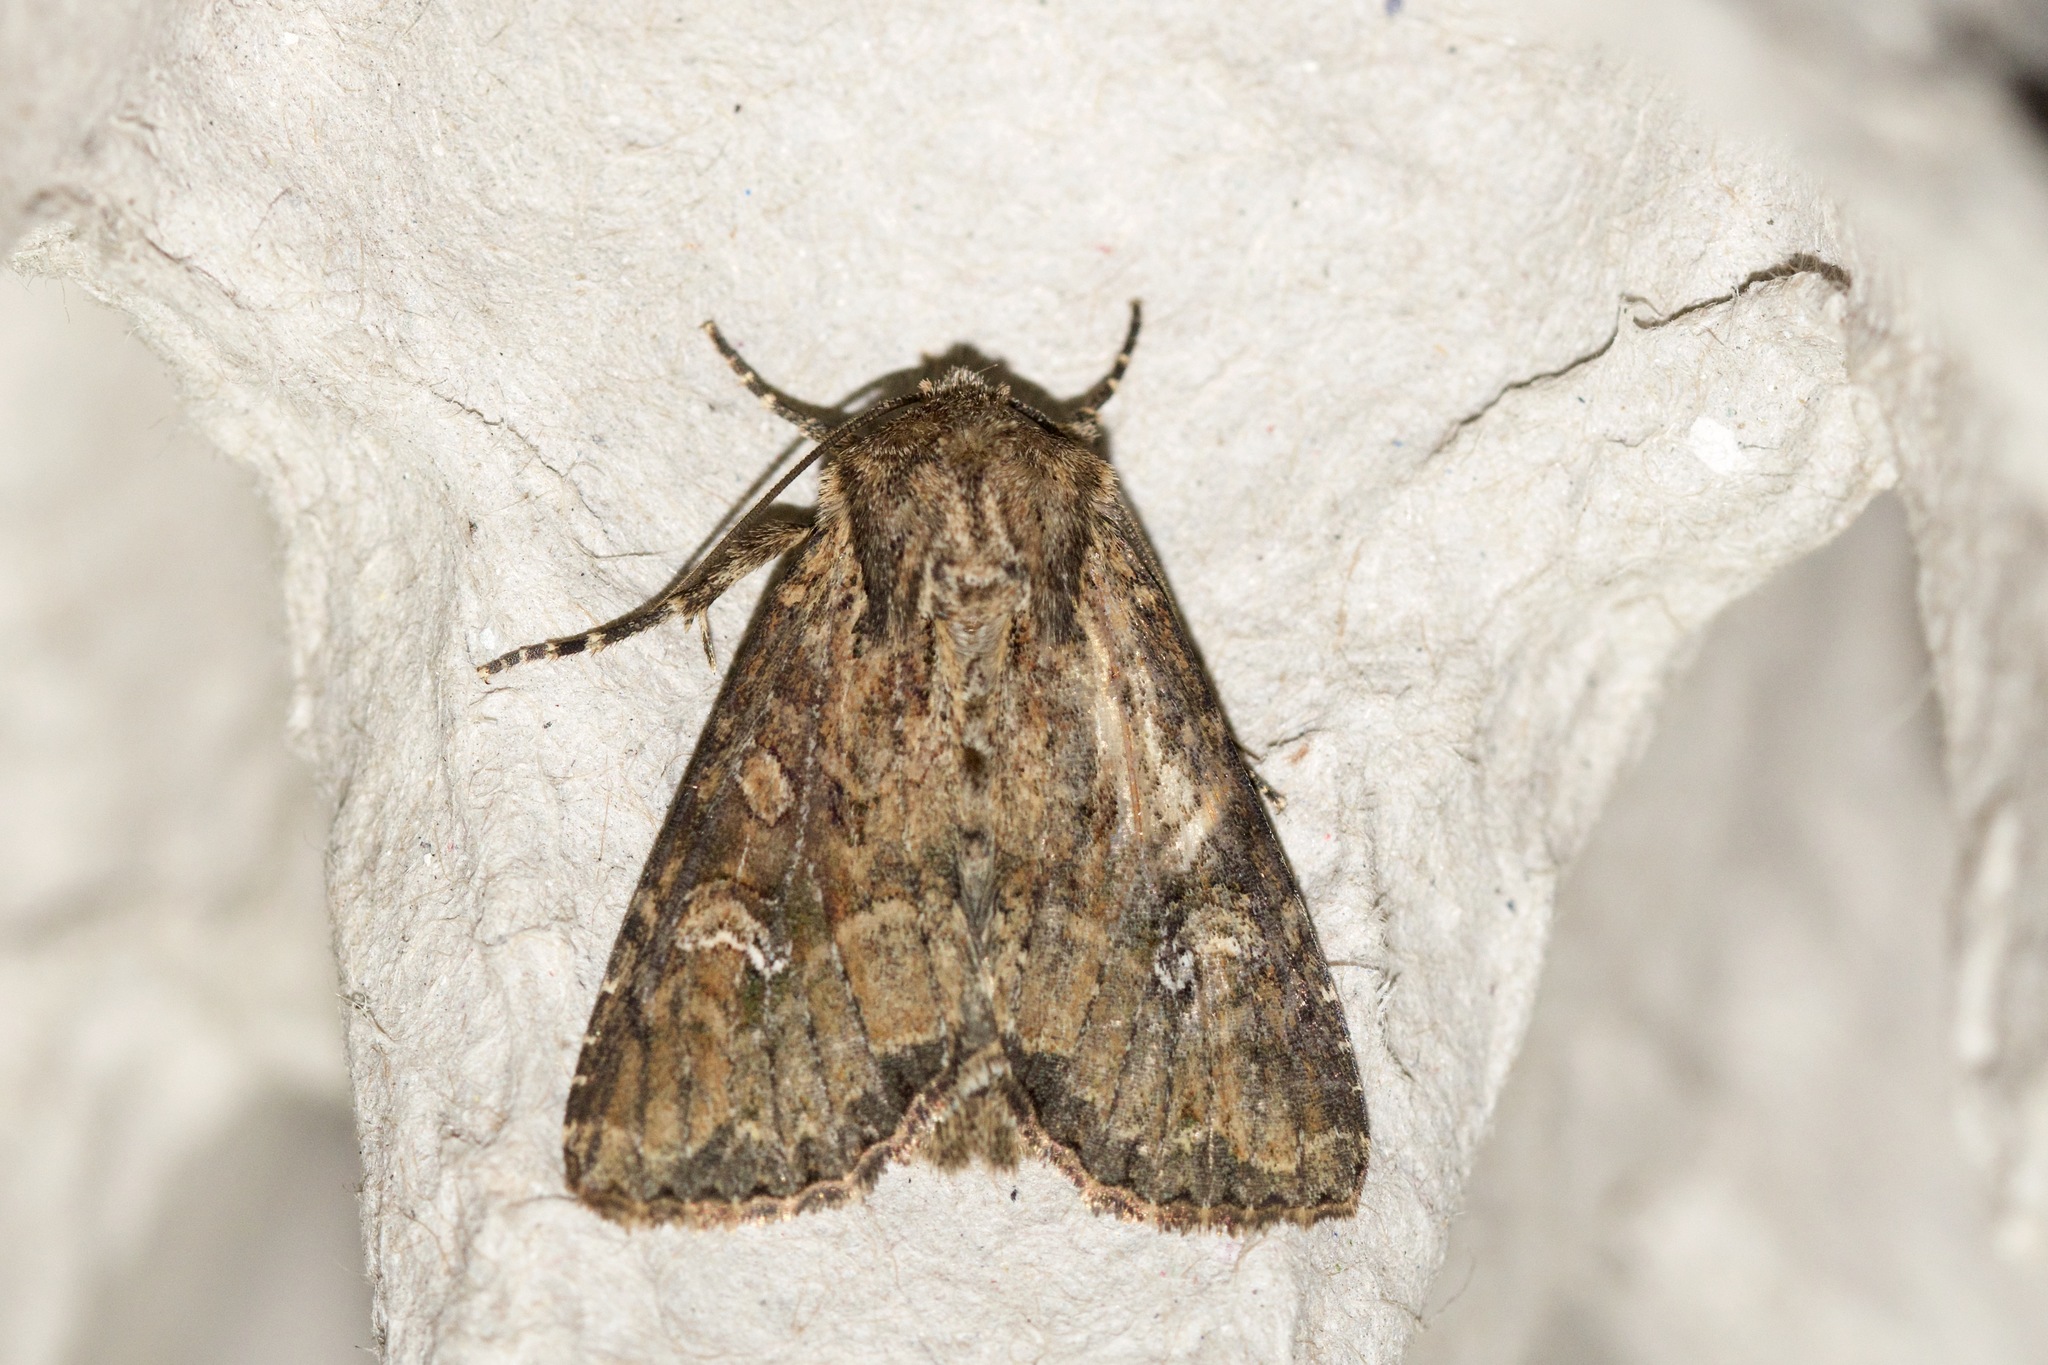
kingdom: Animalia
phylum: Arthropoda
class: Insecta
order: Lepidoptera
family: Noctuidae
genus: Apamea
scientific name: Apamea unanimis
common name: Small clouded brindle
